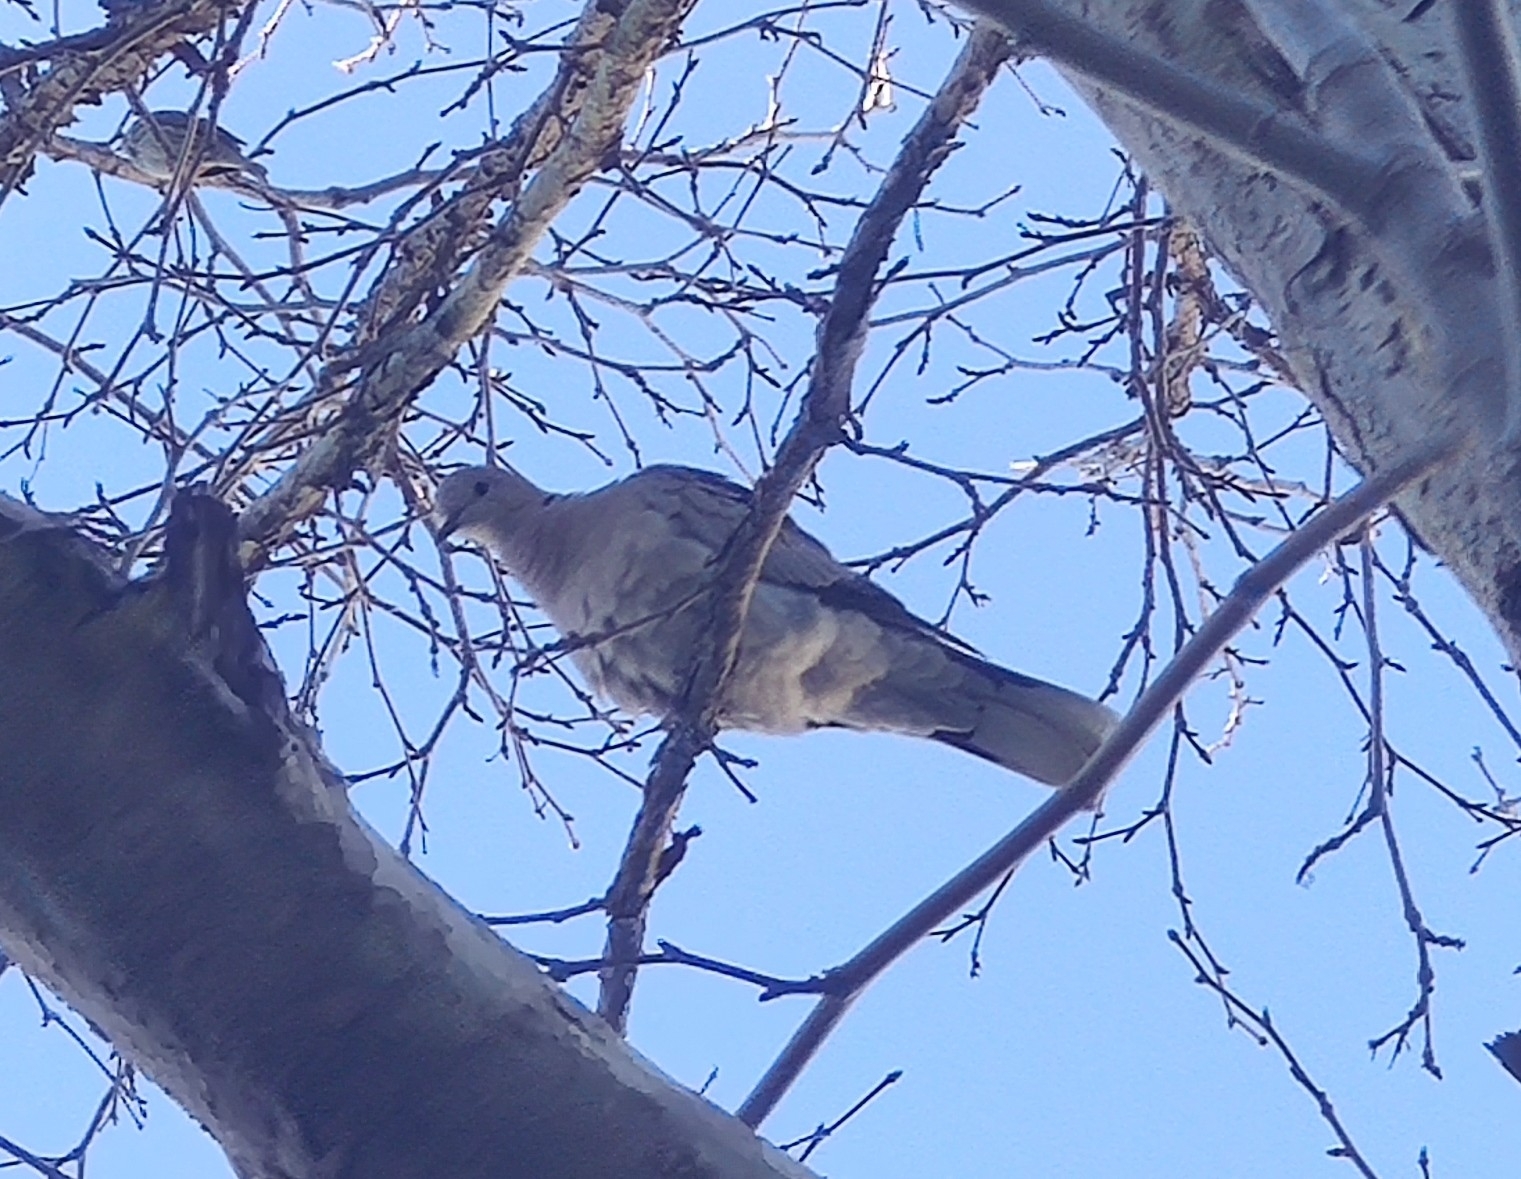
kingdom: Animalia
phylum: Chordata
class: Aves
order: Columbiformes
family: Columbidae
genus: Streptopelia
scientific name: Streptopelia decaocto
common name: Eurasian collared dove
